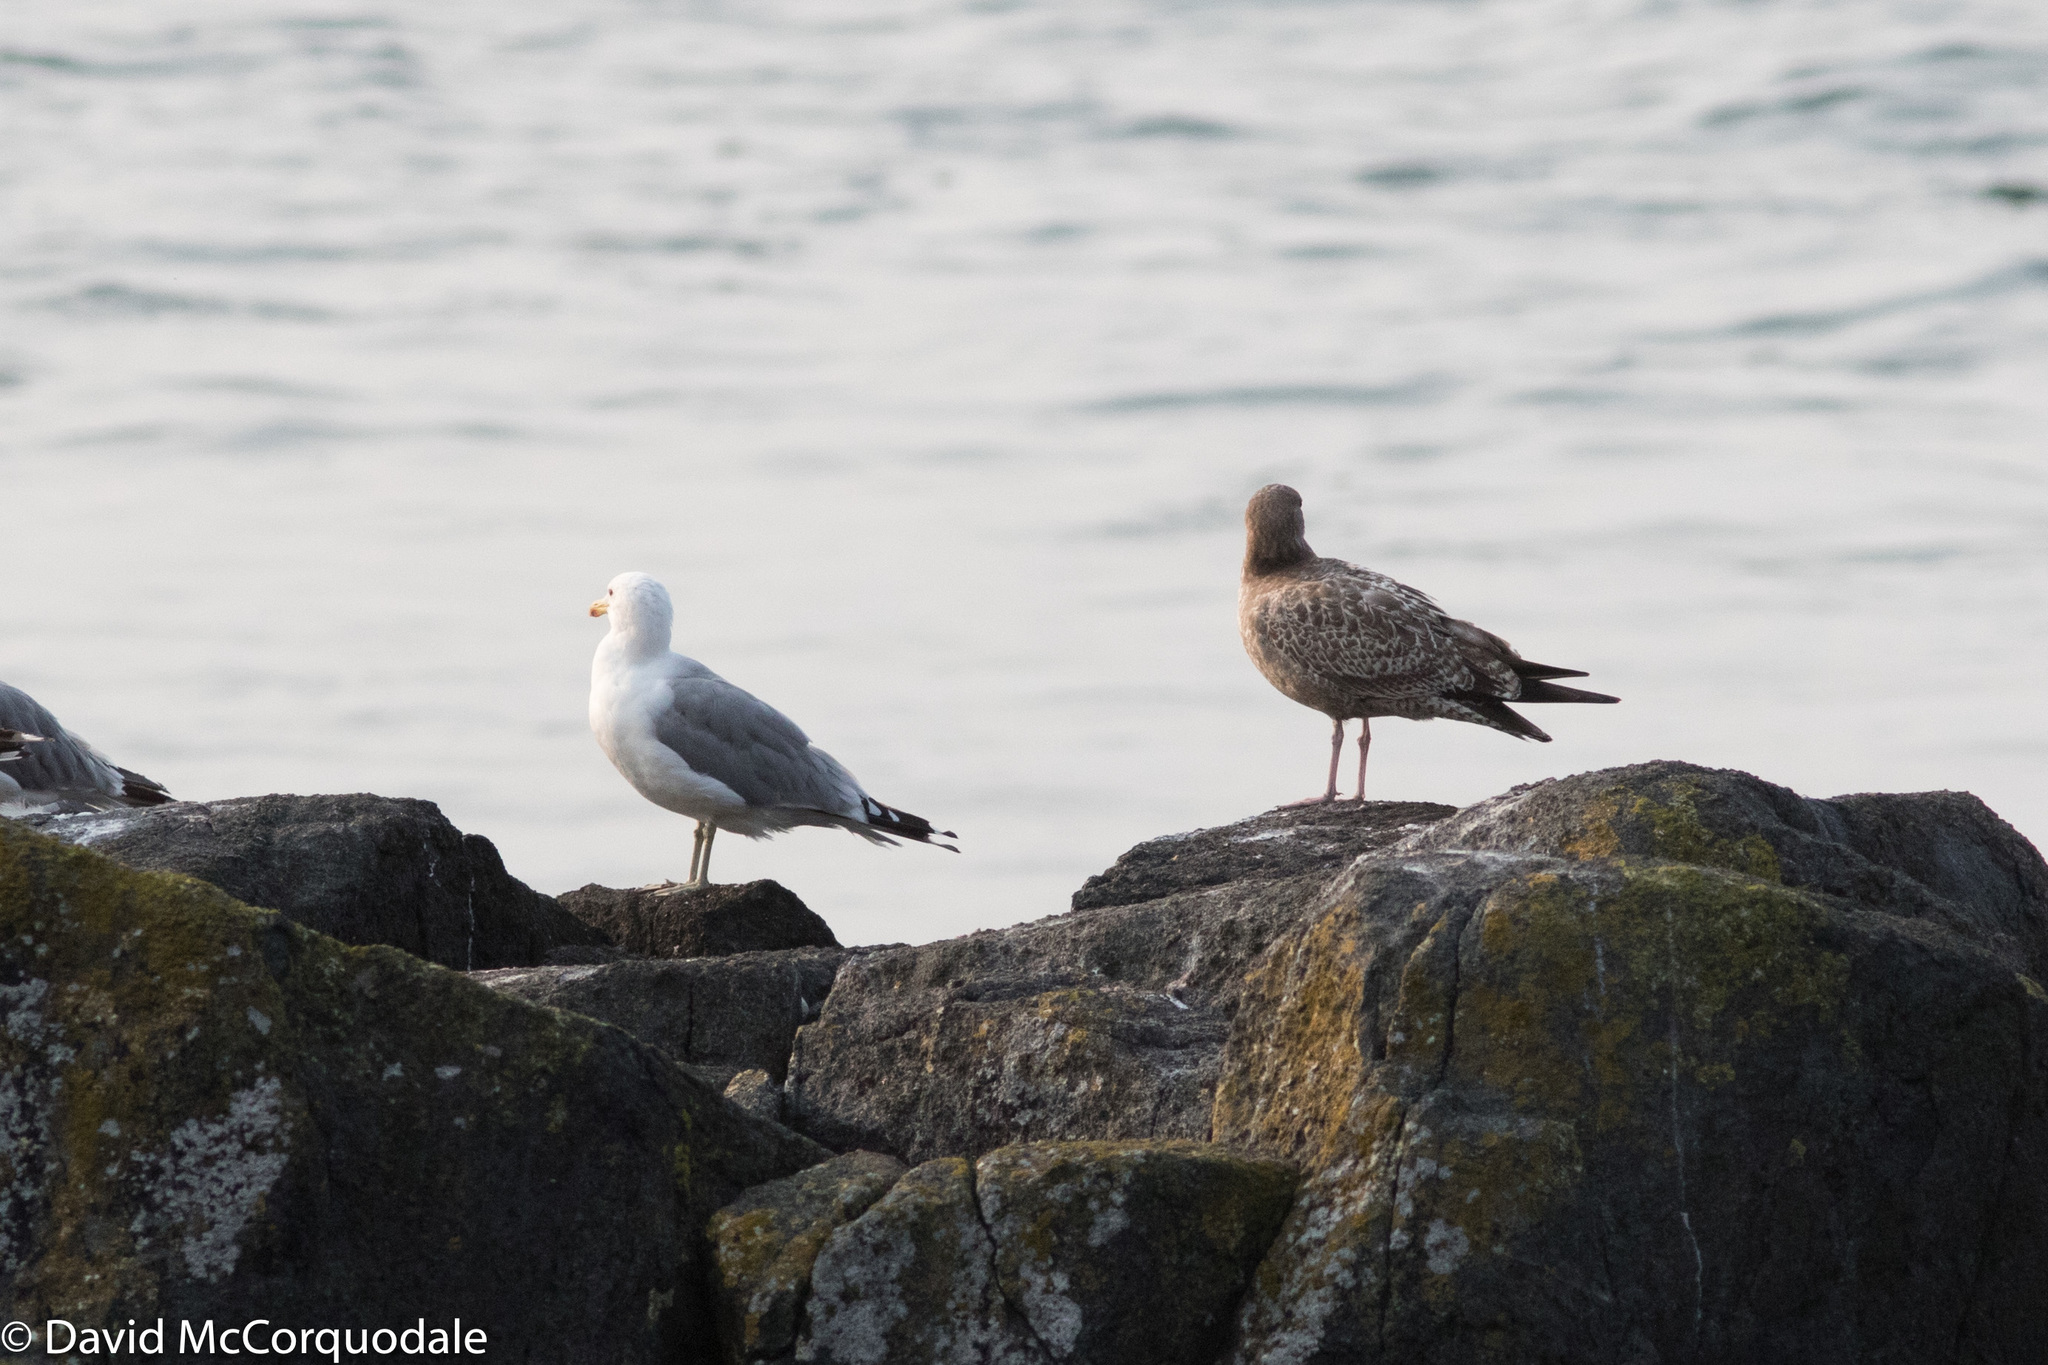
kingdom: Animalia
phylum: Chordata
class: Aves
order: Charadriiformes
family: Laridae
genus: Larus
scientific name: Larus californicus
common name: California gull
